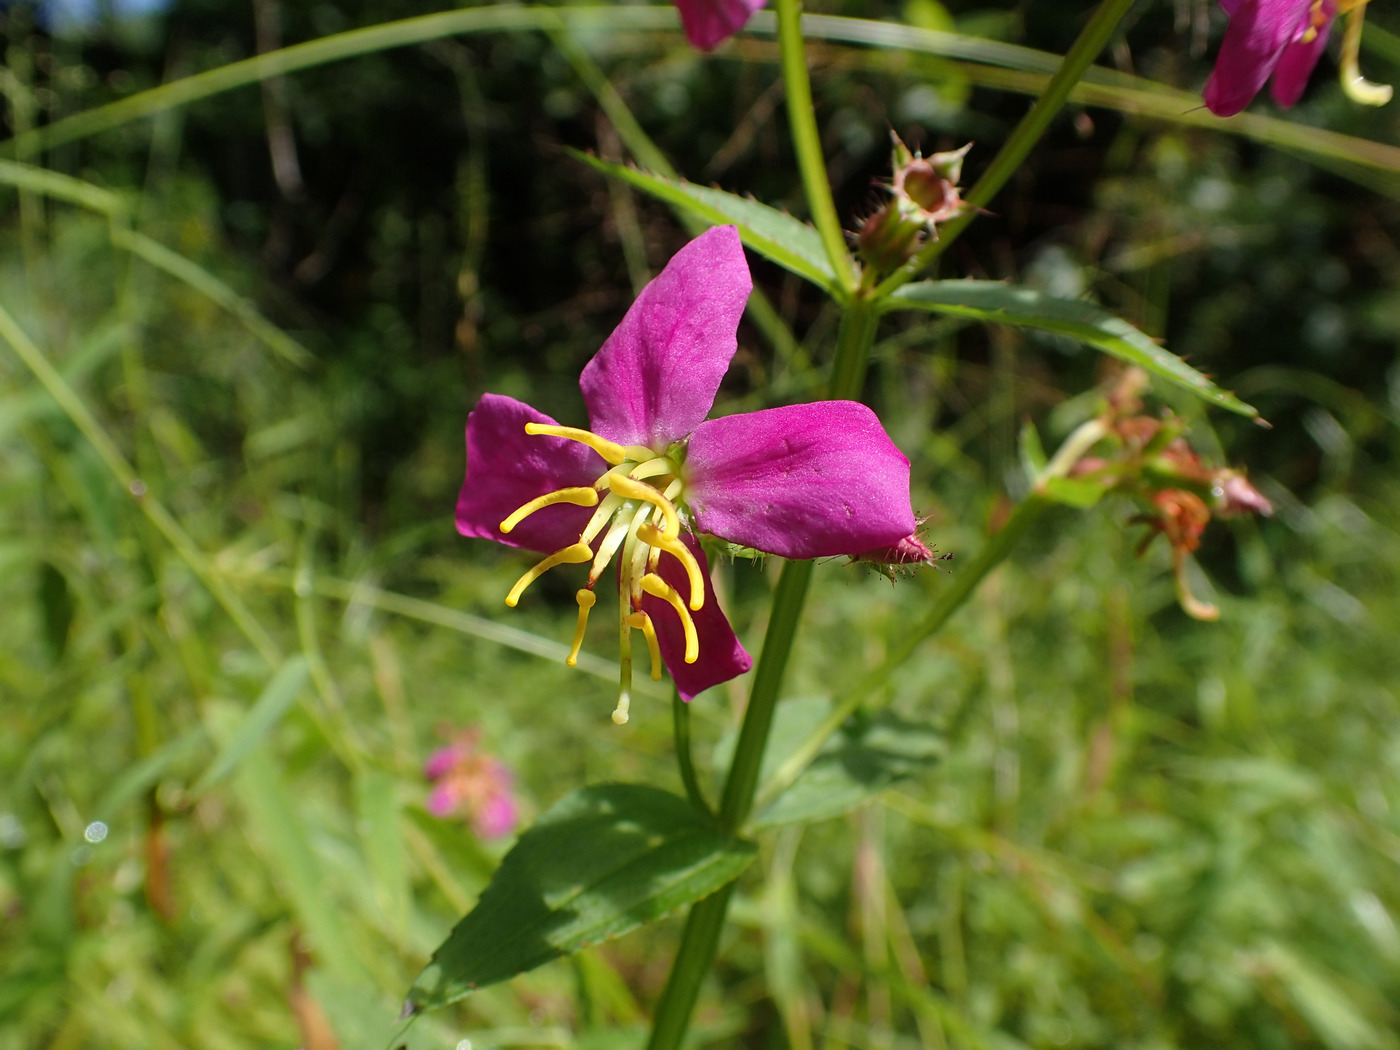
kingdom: Plantae
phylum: Tracheophyta
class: Magnoliopsida
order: Myrtales
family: Melastomataceae
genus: Rhexia
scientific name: Rhexia virginica
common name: Common meadow beauty
